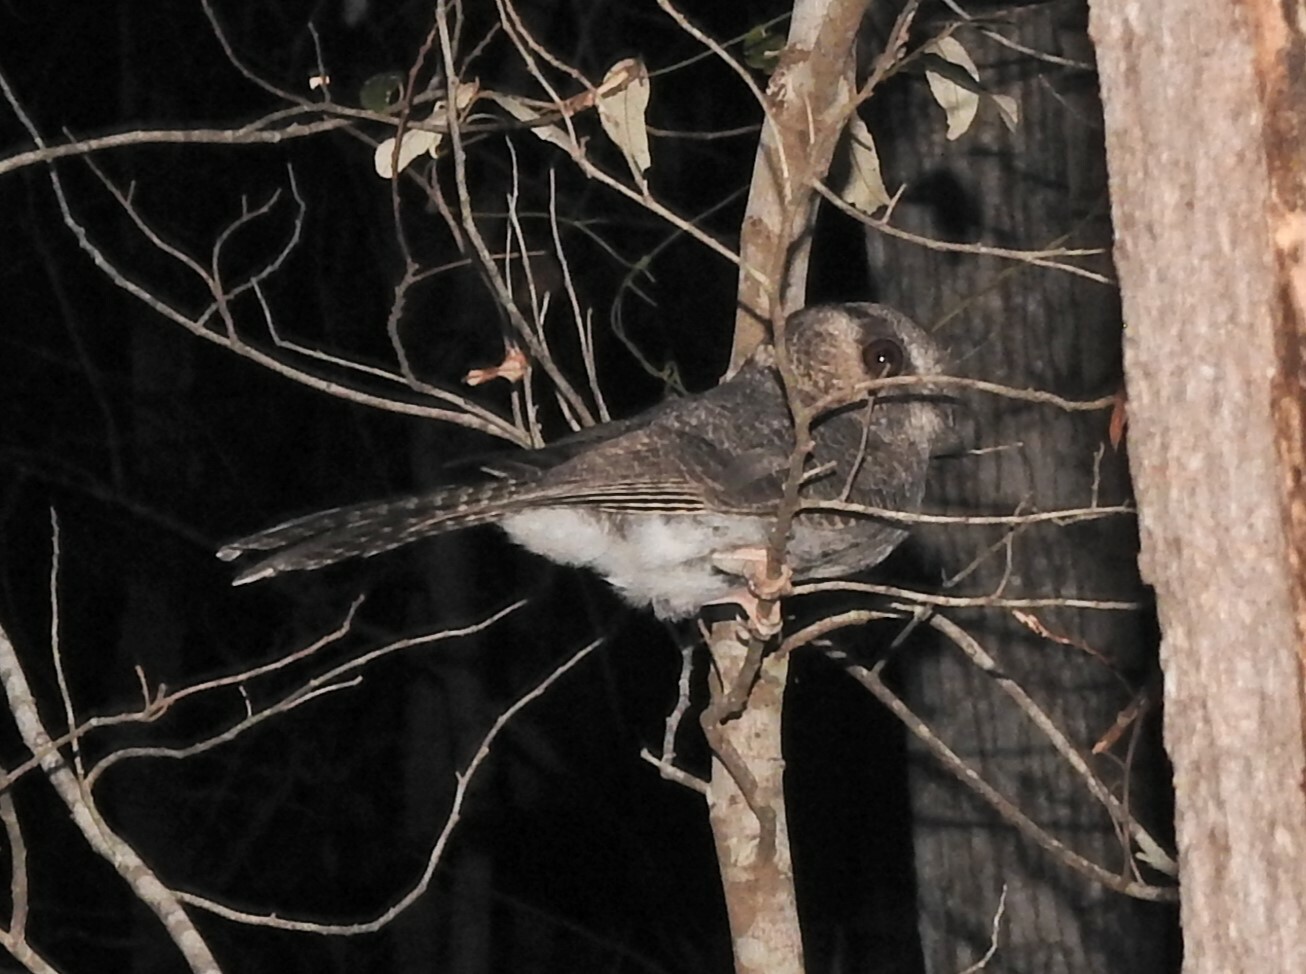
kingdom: Animalia
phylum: Chordata
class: Aves
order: Apodiformes
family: Aegothelidae
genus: Aegotheles
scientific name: Aegotheles cristatus
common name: Australian owlet-nightjar
